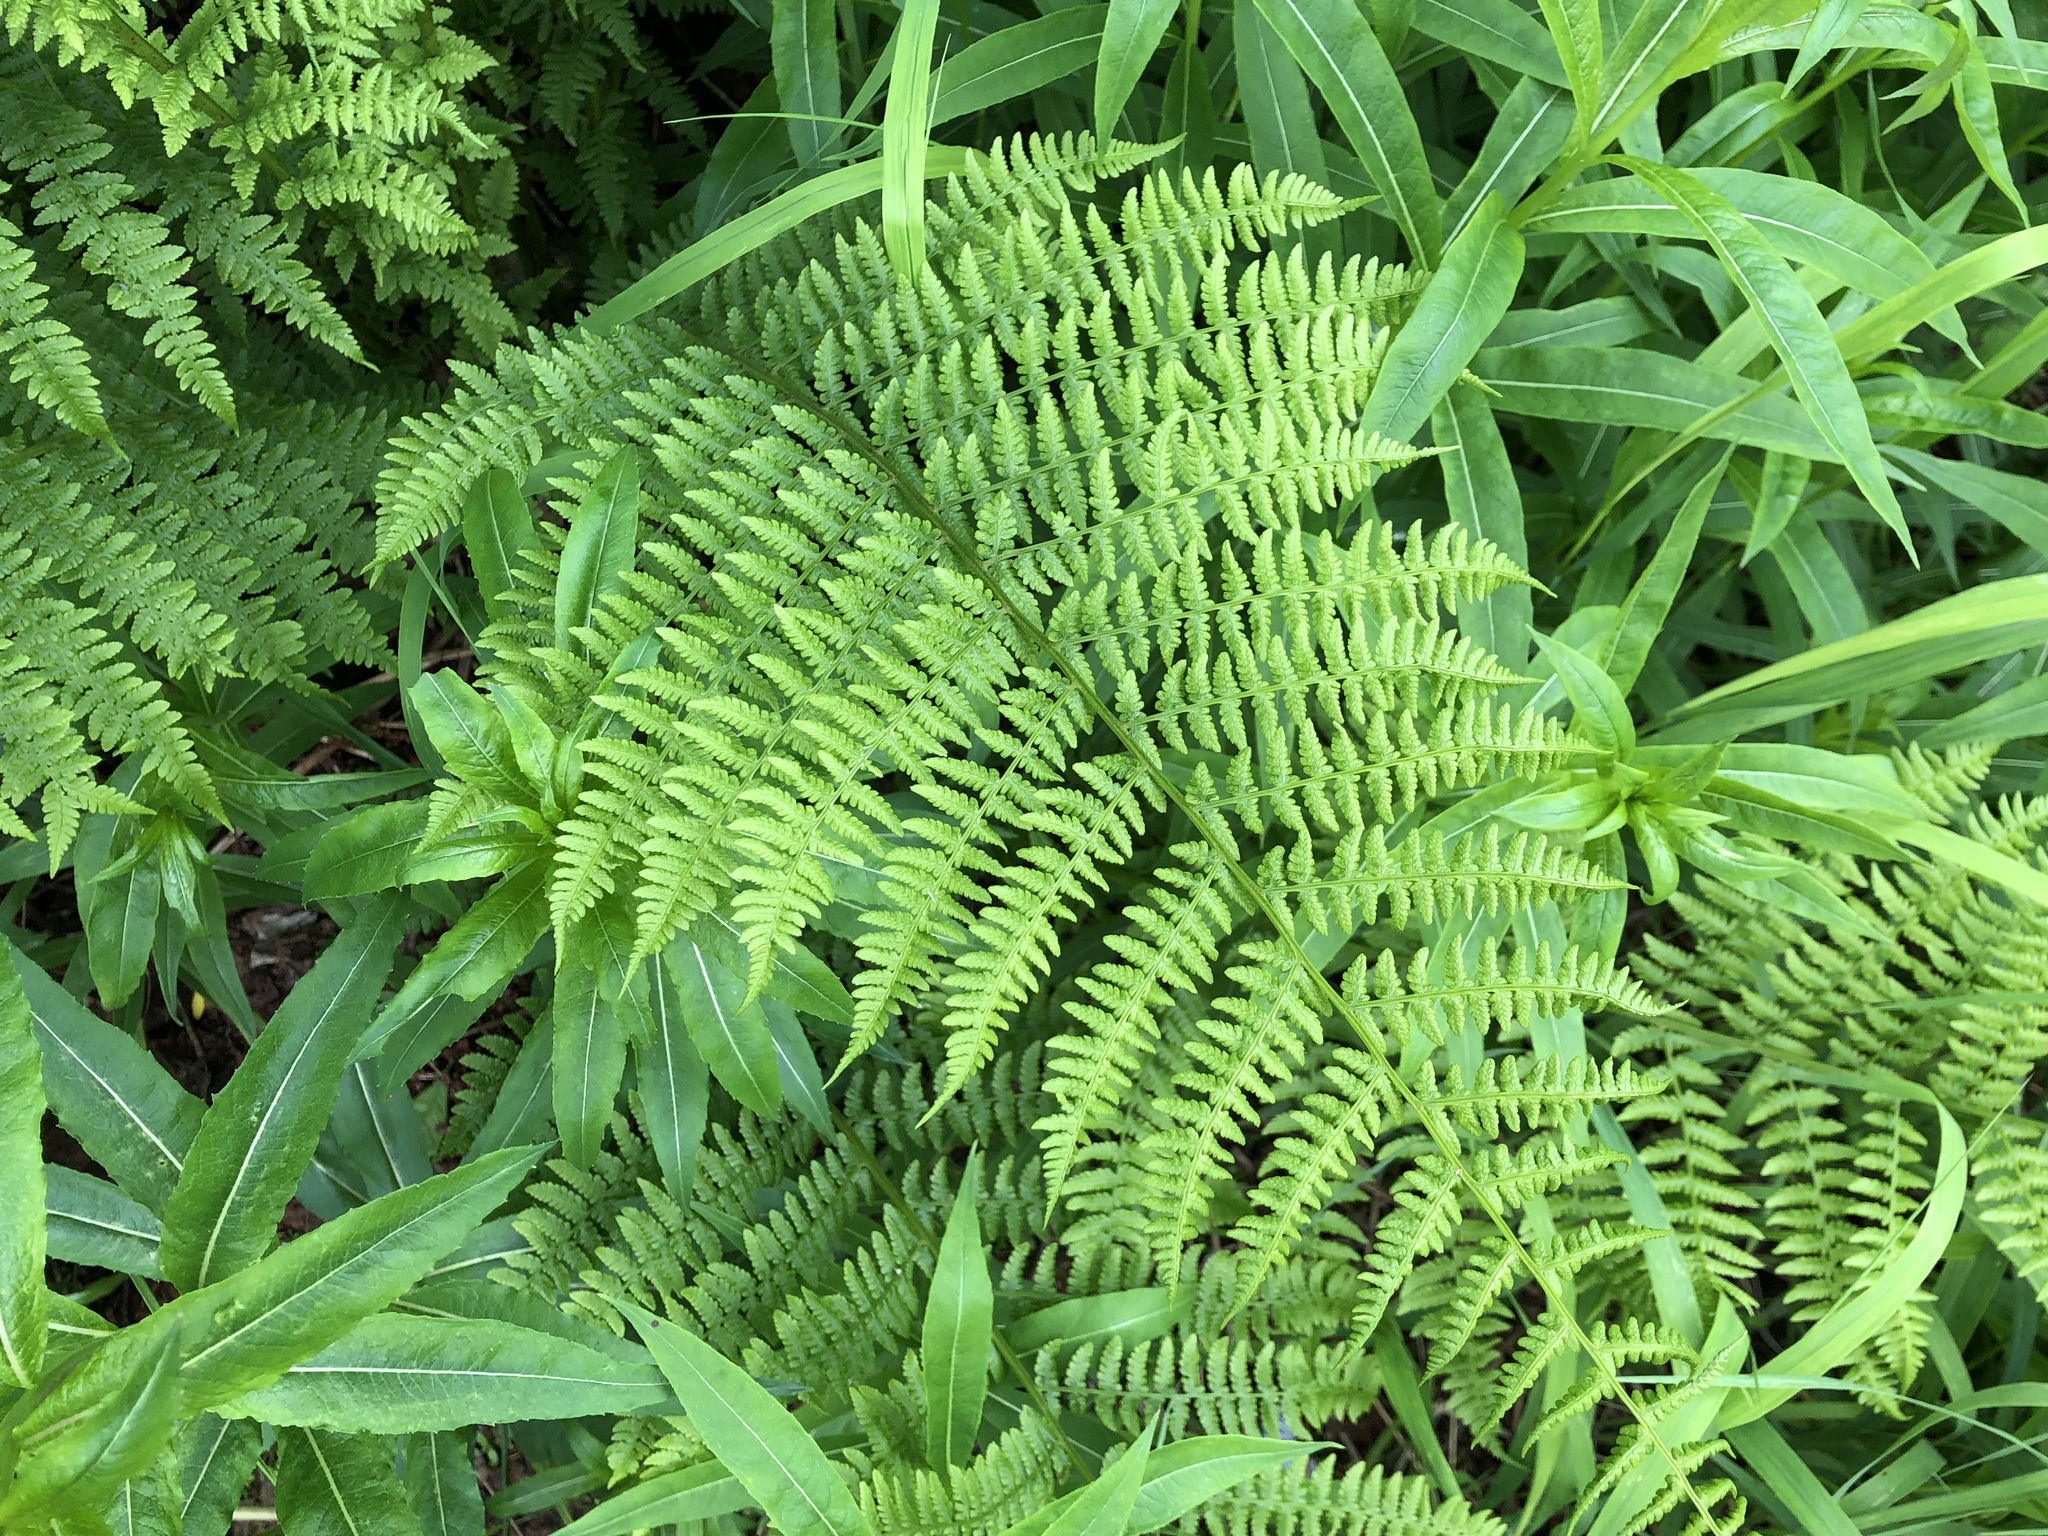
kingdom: Plantae
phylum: Tracheophyta
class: Polypodiopsida
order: Polypodiales
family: Athyriaceae
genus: Athyrium
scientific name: Athyrium filix-femina
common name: Lady fern
